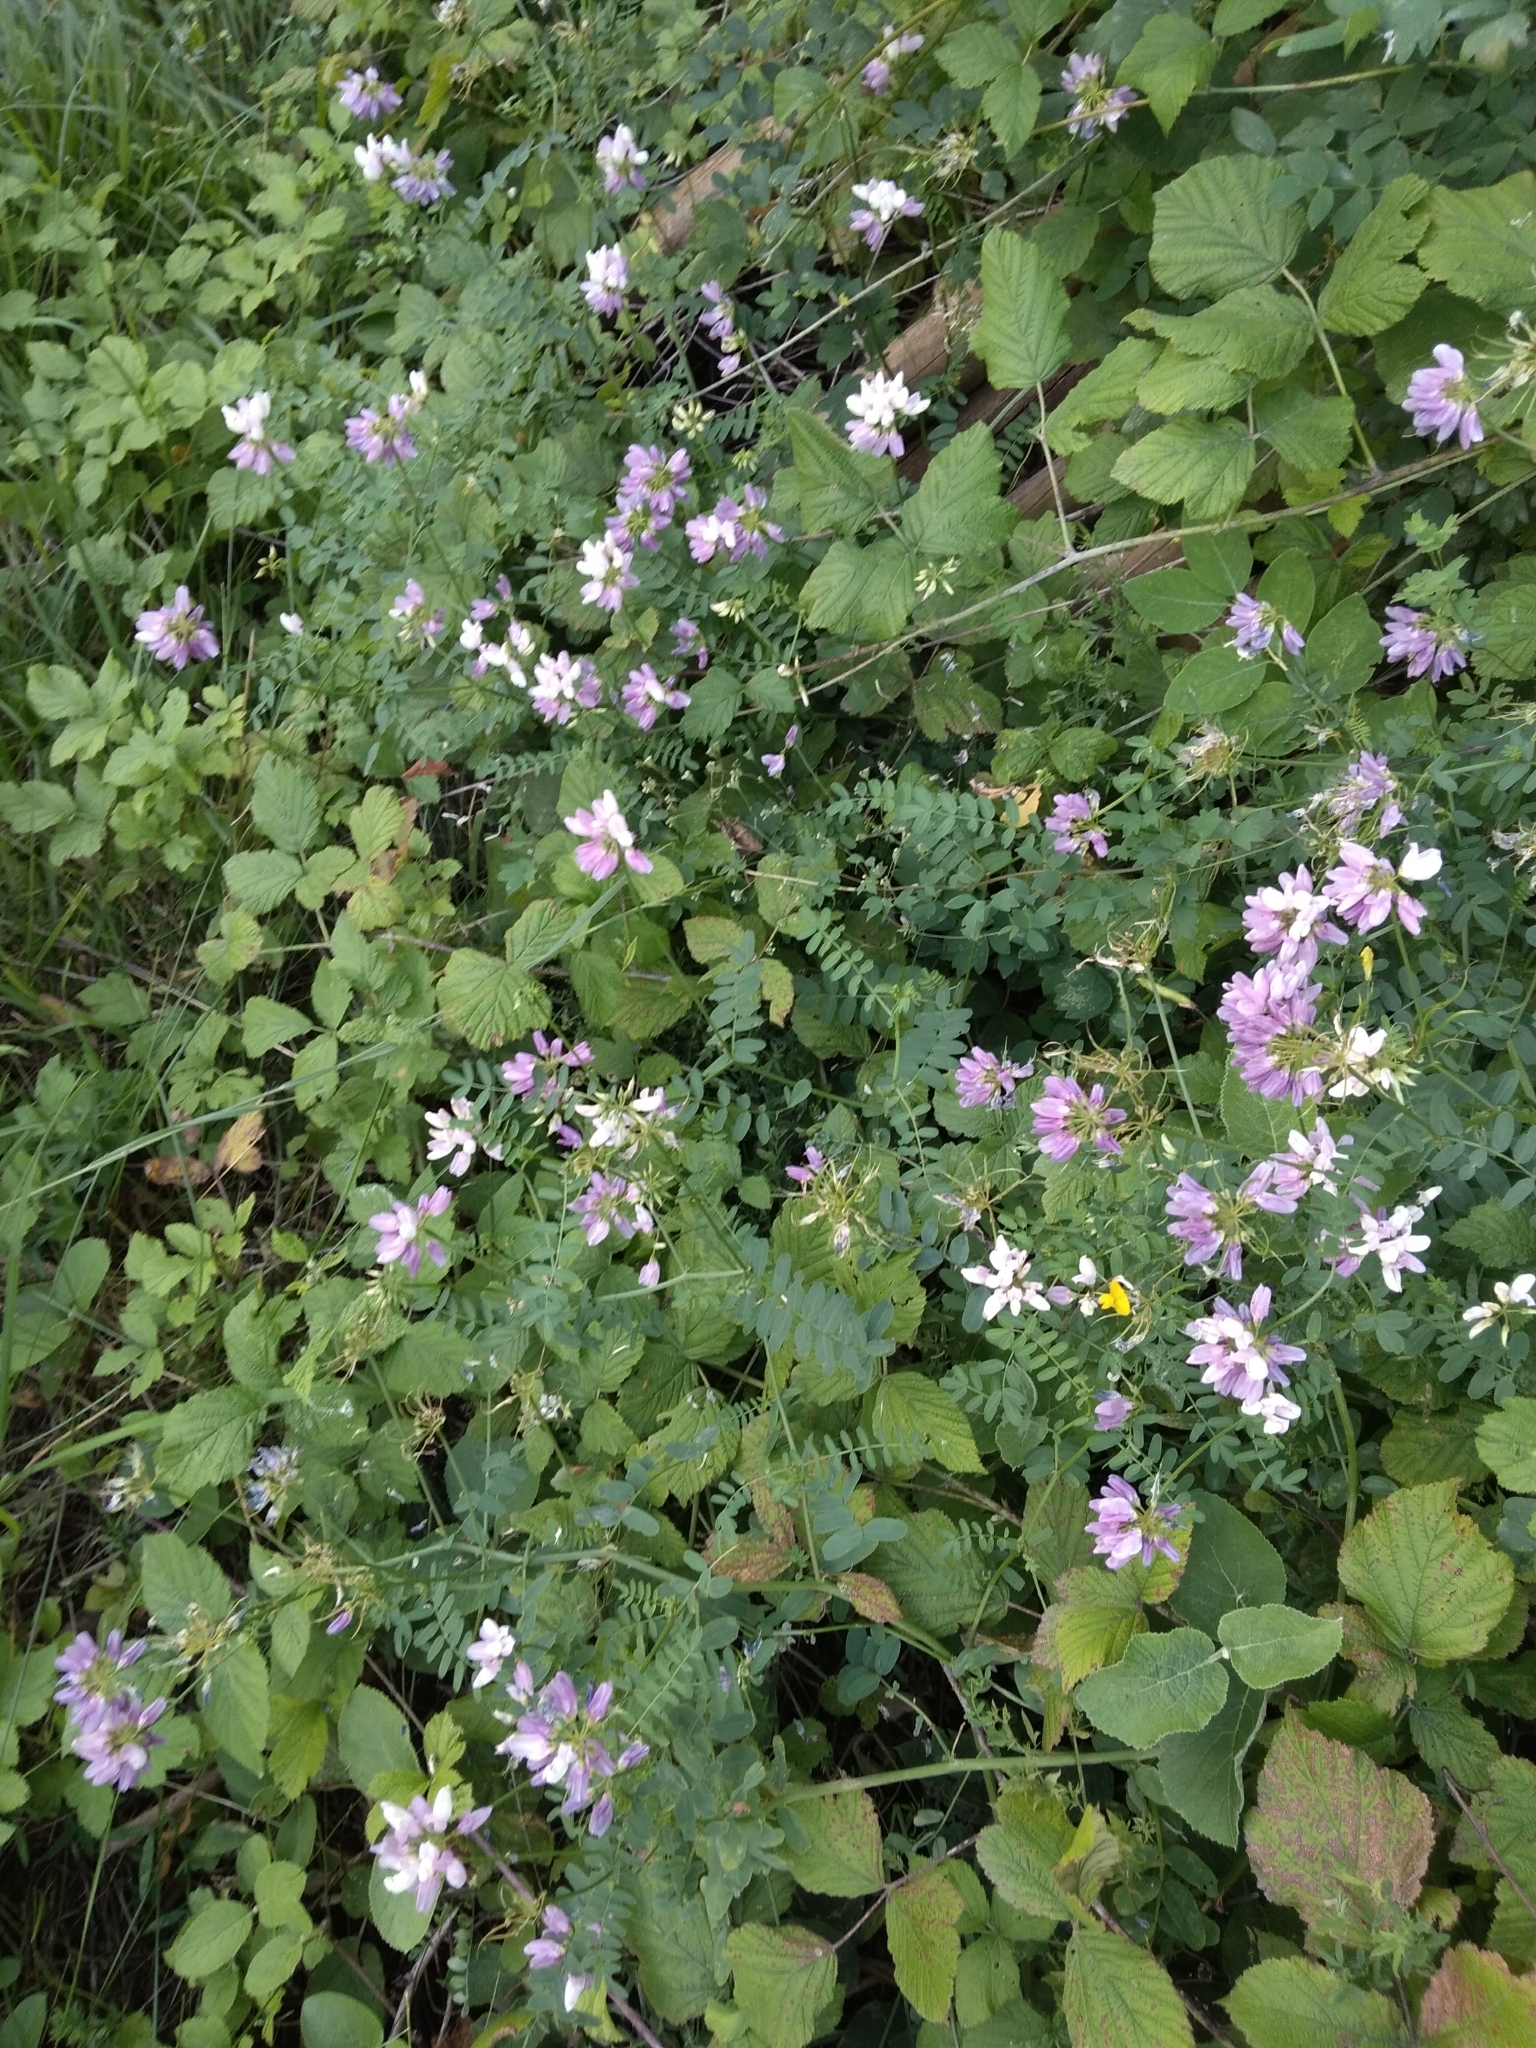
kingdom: Plantae
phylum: Tracheophyta
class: Magnoliopsida
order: Fabales
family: Fabaceae
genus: Coronilla
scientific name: Coronilla varia
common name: Crownvetch
